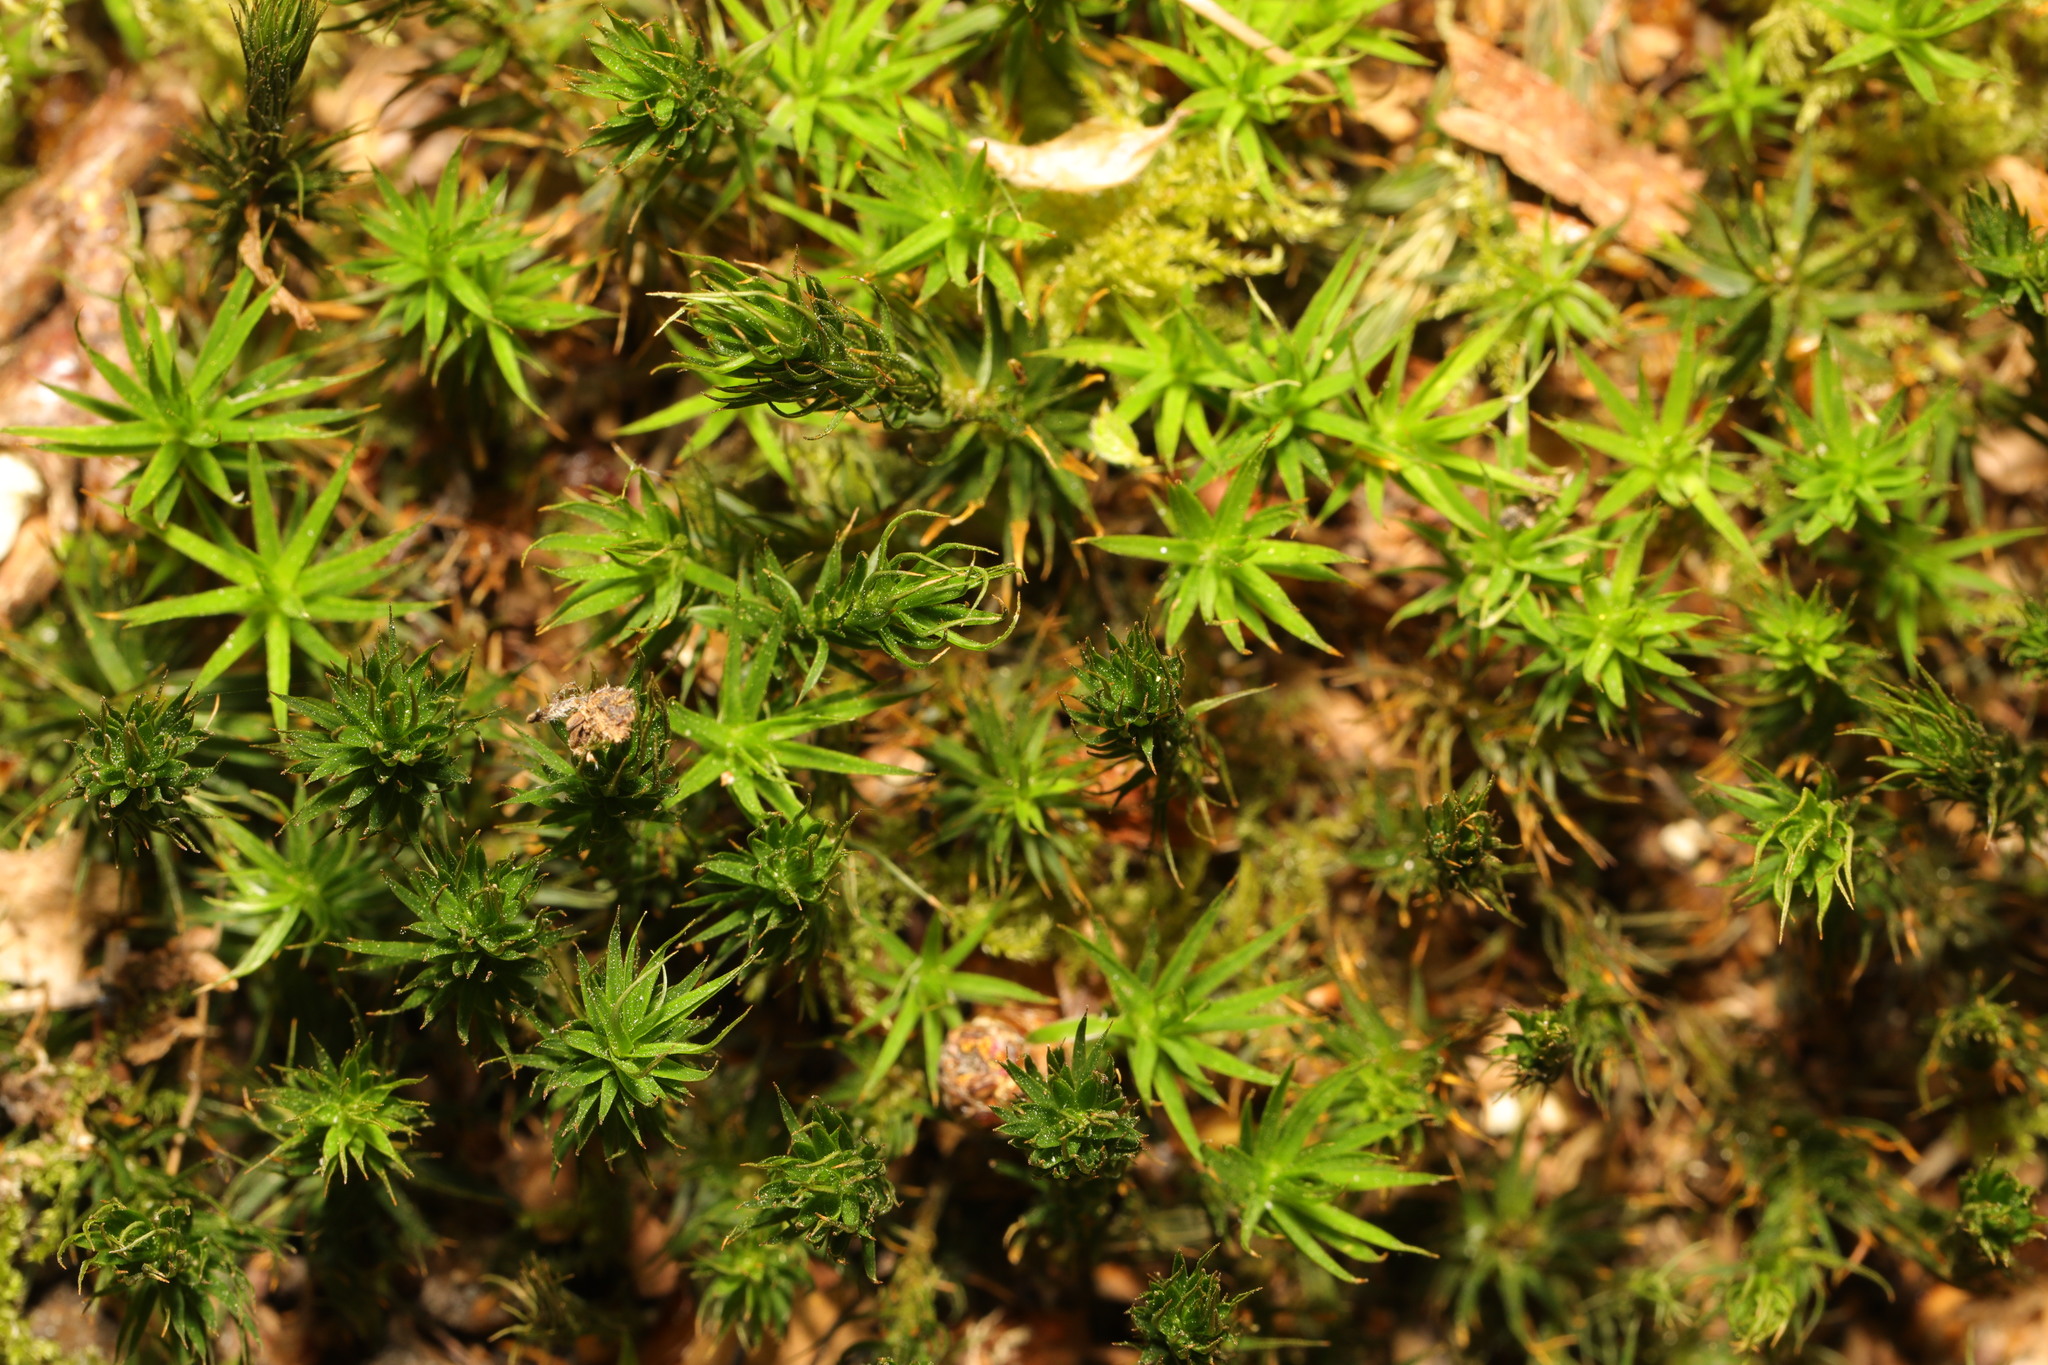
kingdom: Plantae
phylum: Bryophyta
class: Polytrichopsida
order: Polytrichales
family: Polytrichaceae
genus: Polytrichum
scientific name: Polytrichum juniperinum
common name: Juniper haircap moss
